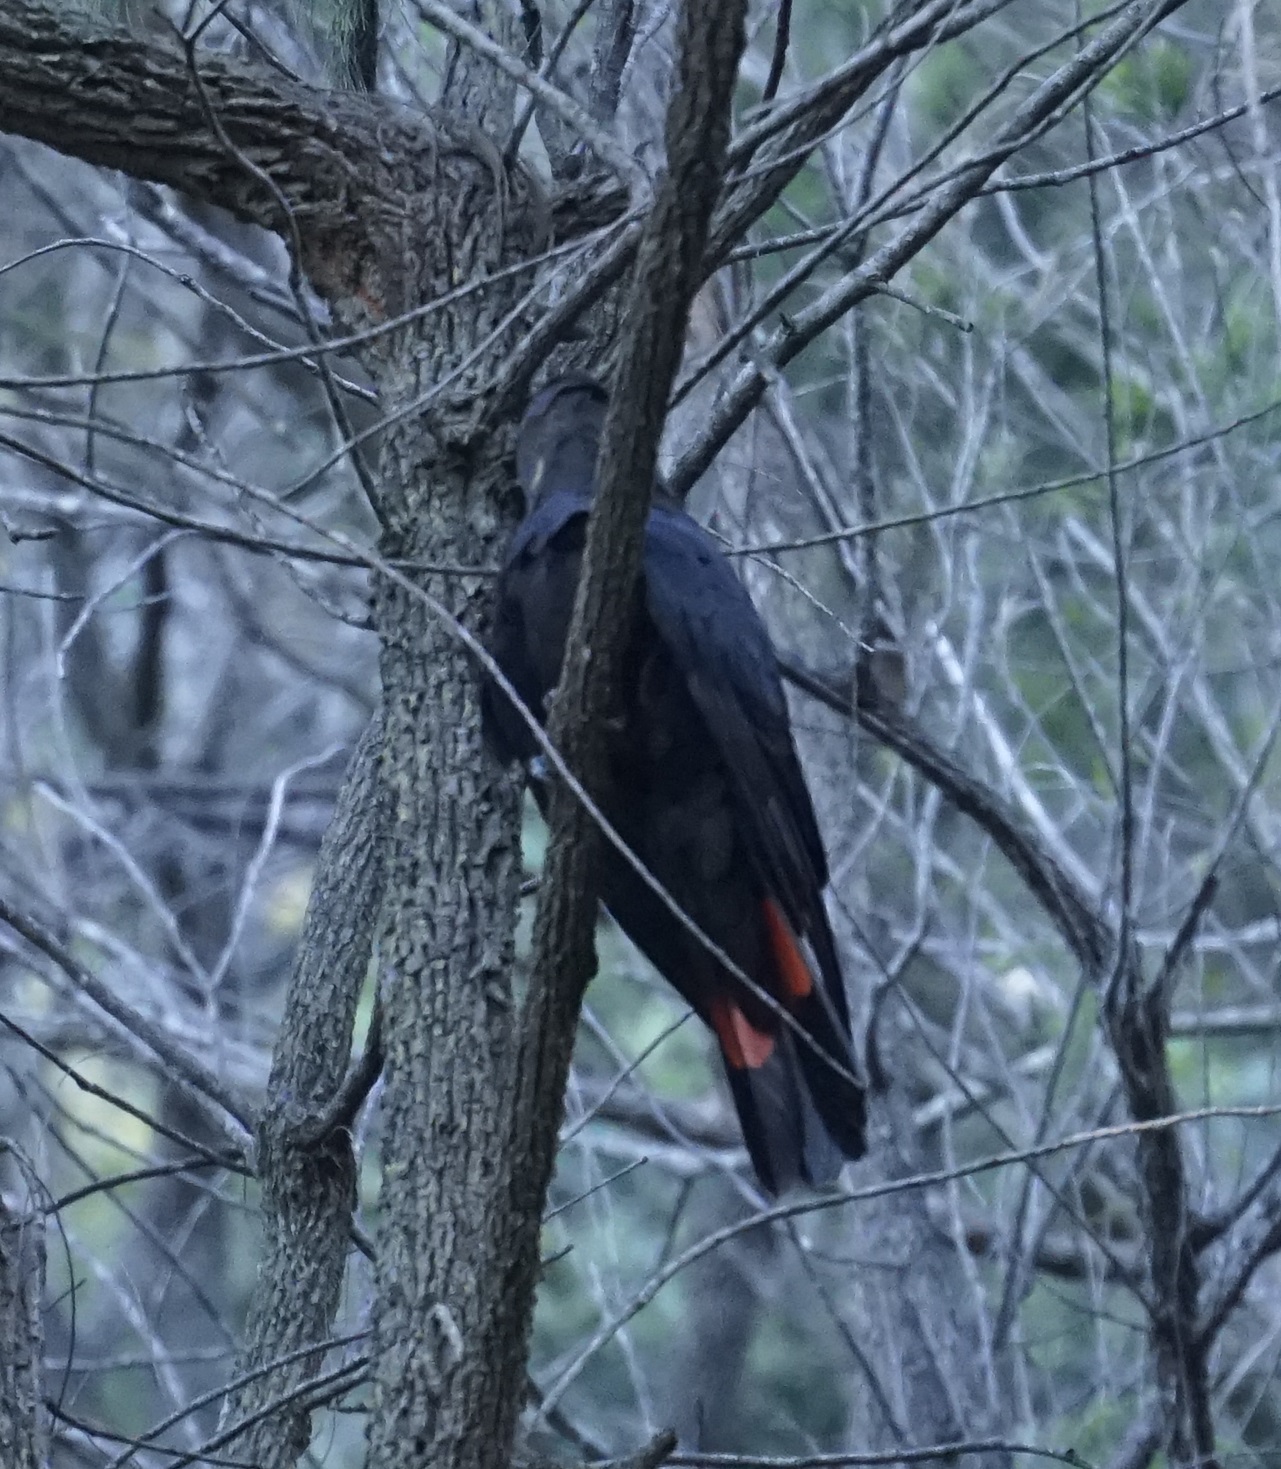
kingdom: Animalia
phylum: Chordata
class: Aves
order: Psittaciformes
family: Psittacidae
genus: Calyptorhynchus
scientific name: Calyptorhynchus lathami
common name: Glossy black cockatoo
